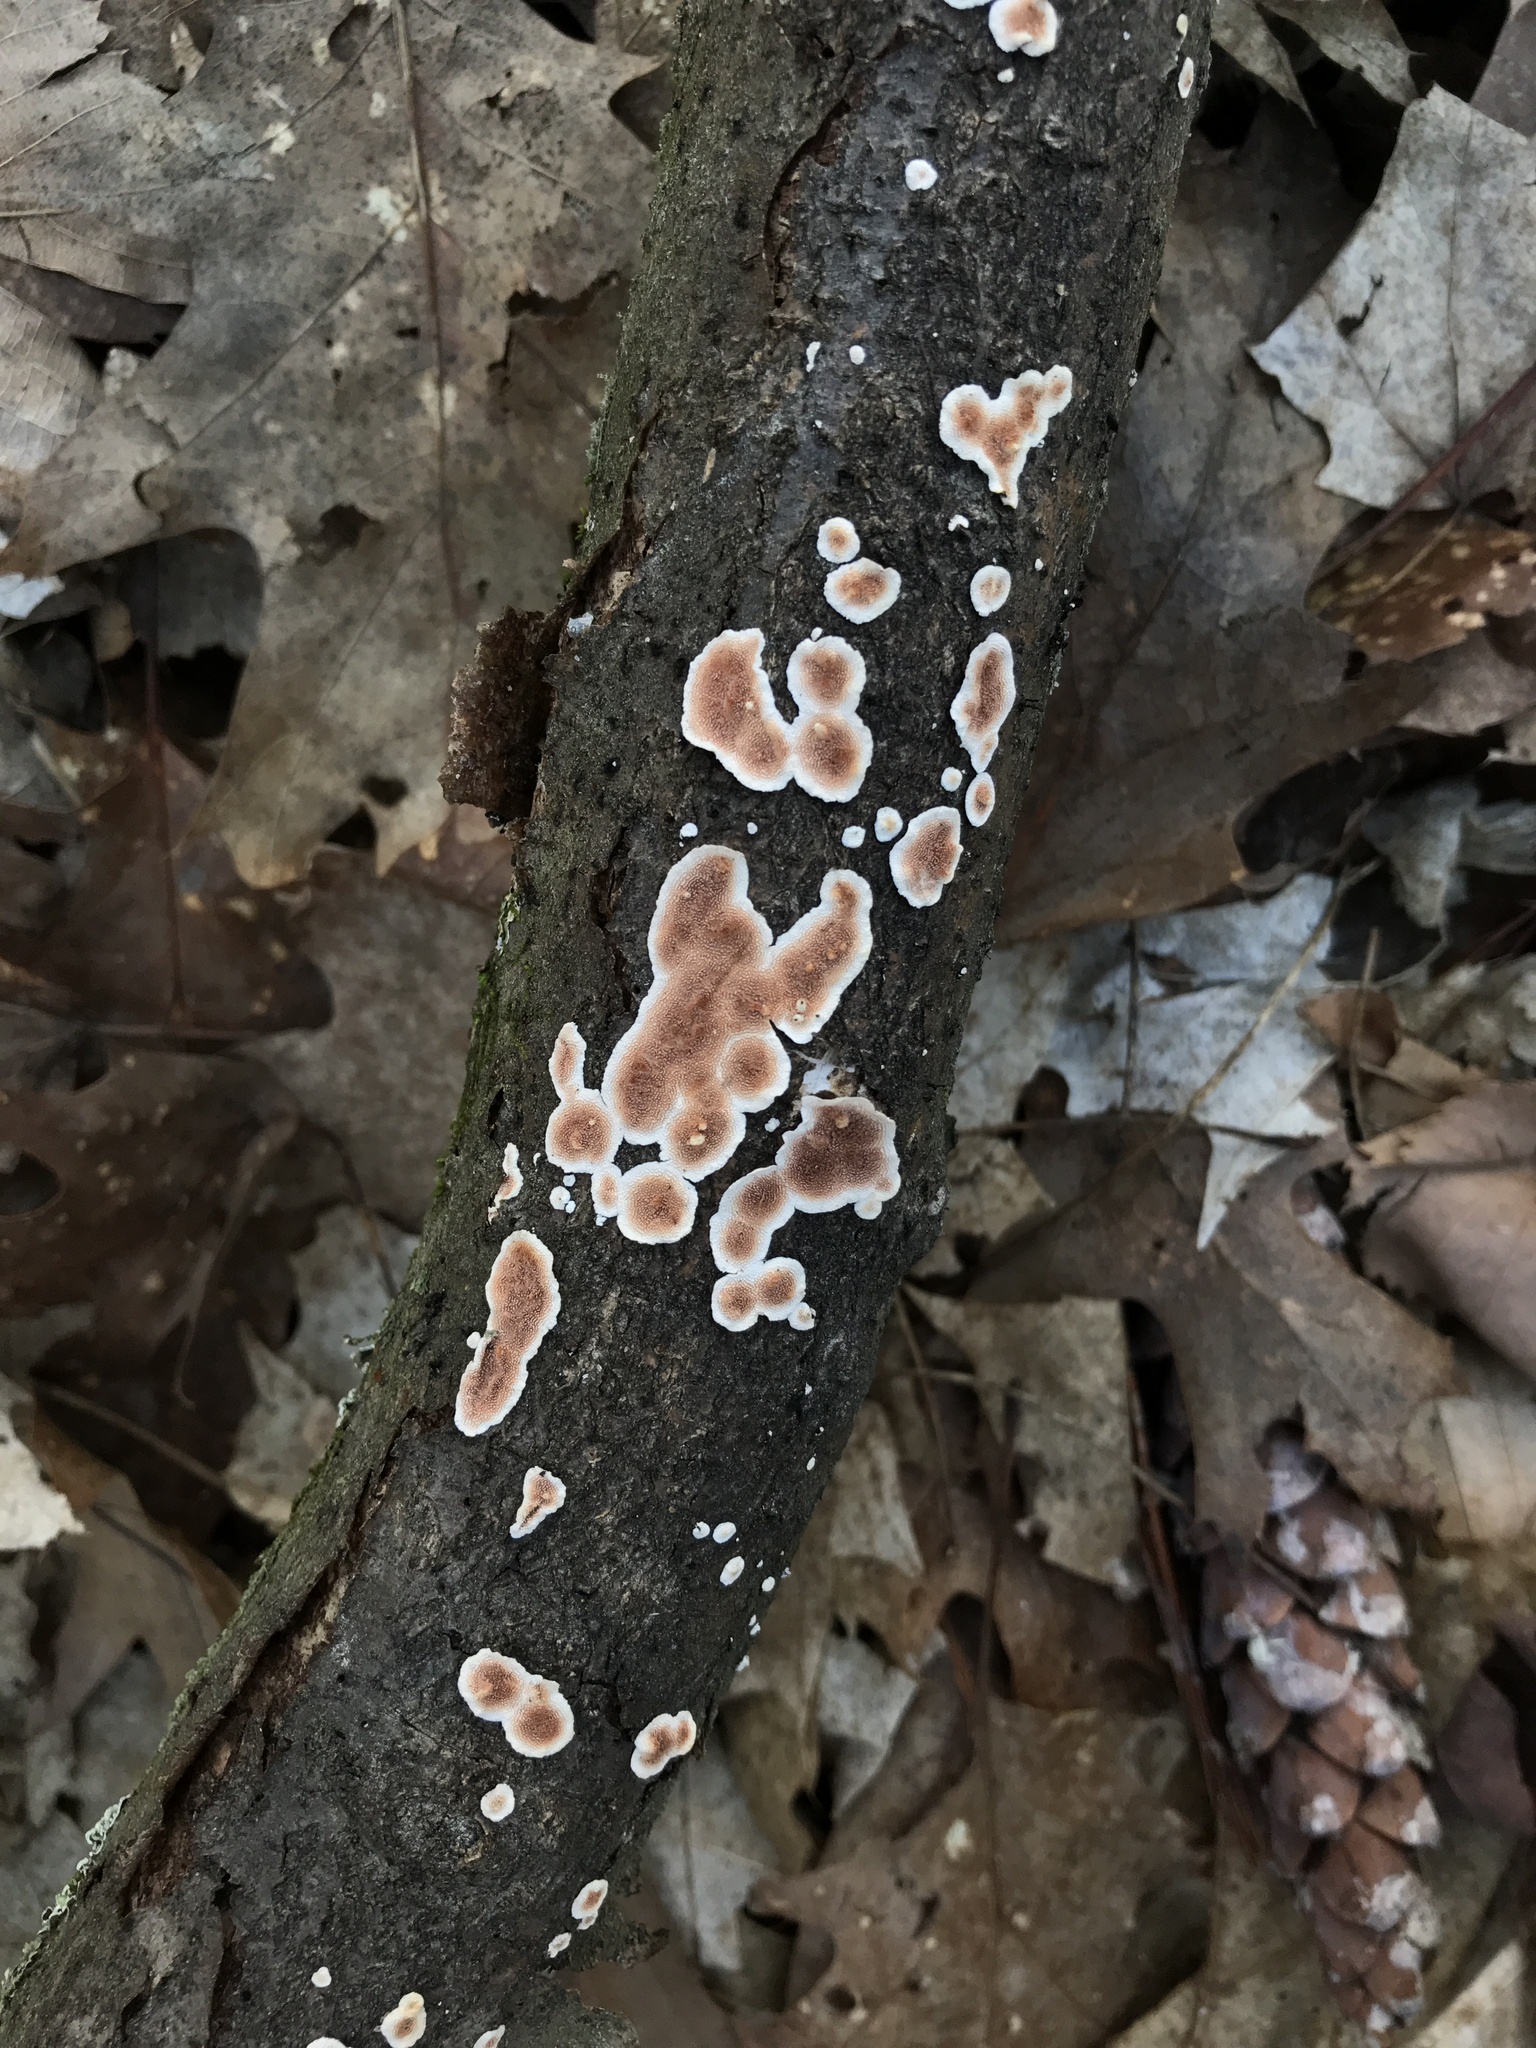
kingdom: Fungi
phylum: Basidiomycota
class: Agaricomycetes
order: Polyporales
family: Steccherinaceae
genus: Steccherinum
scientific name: Steccherinum ochraceum
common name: Ochre spreading tooth
